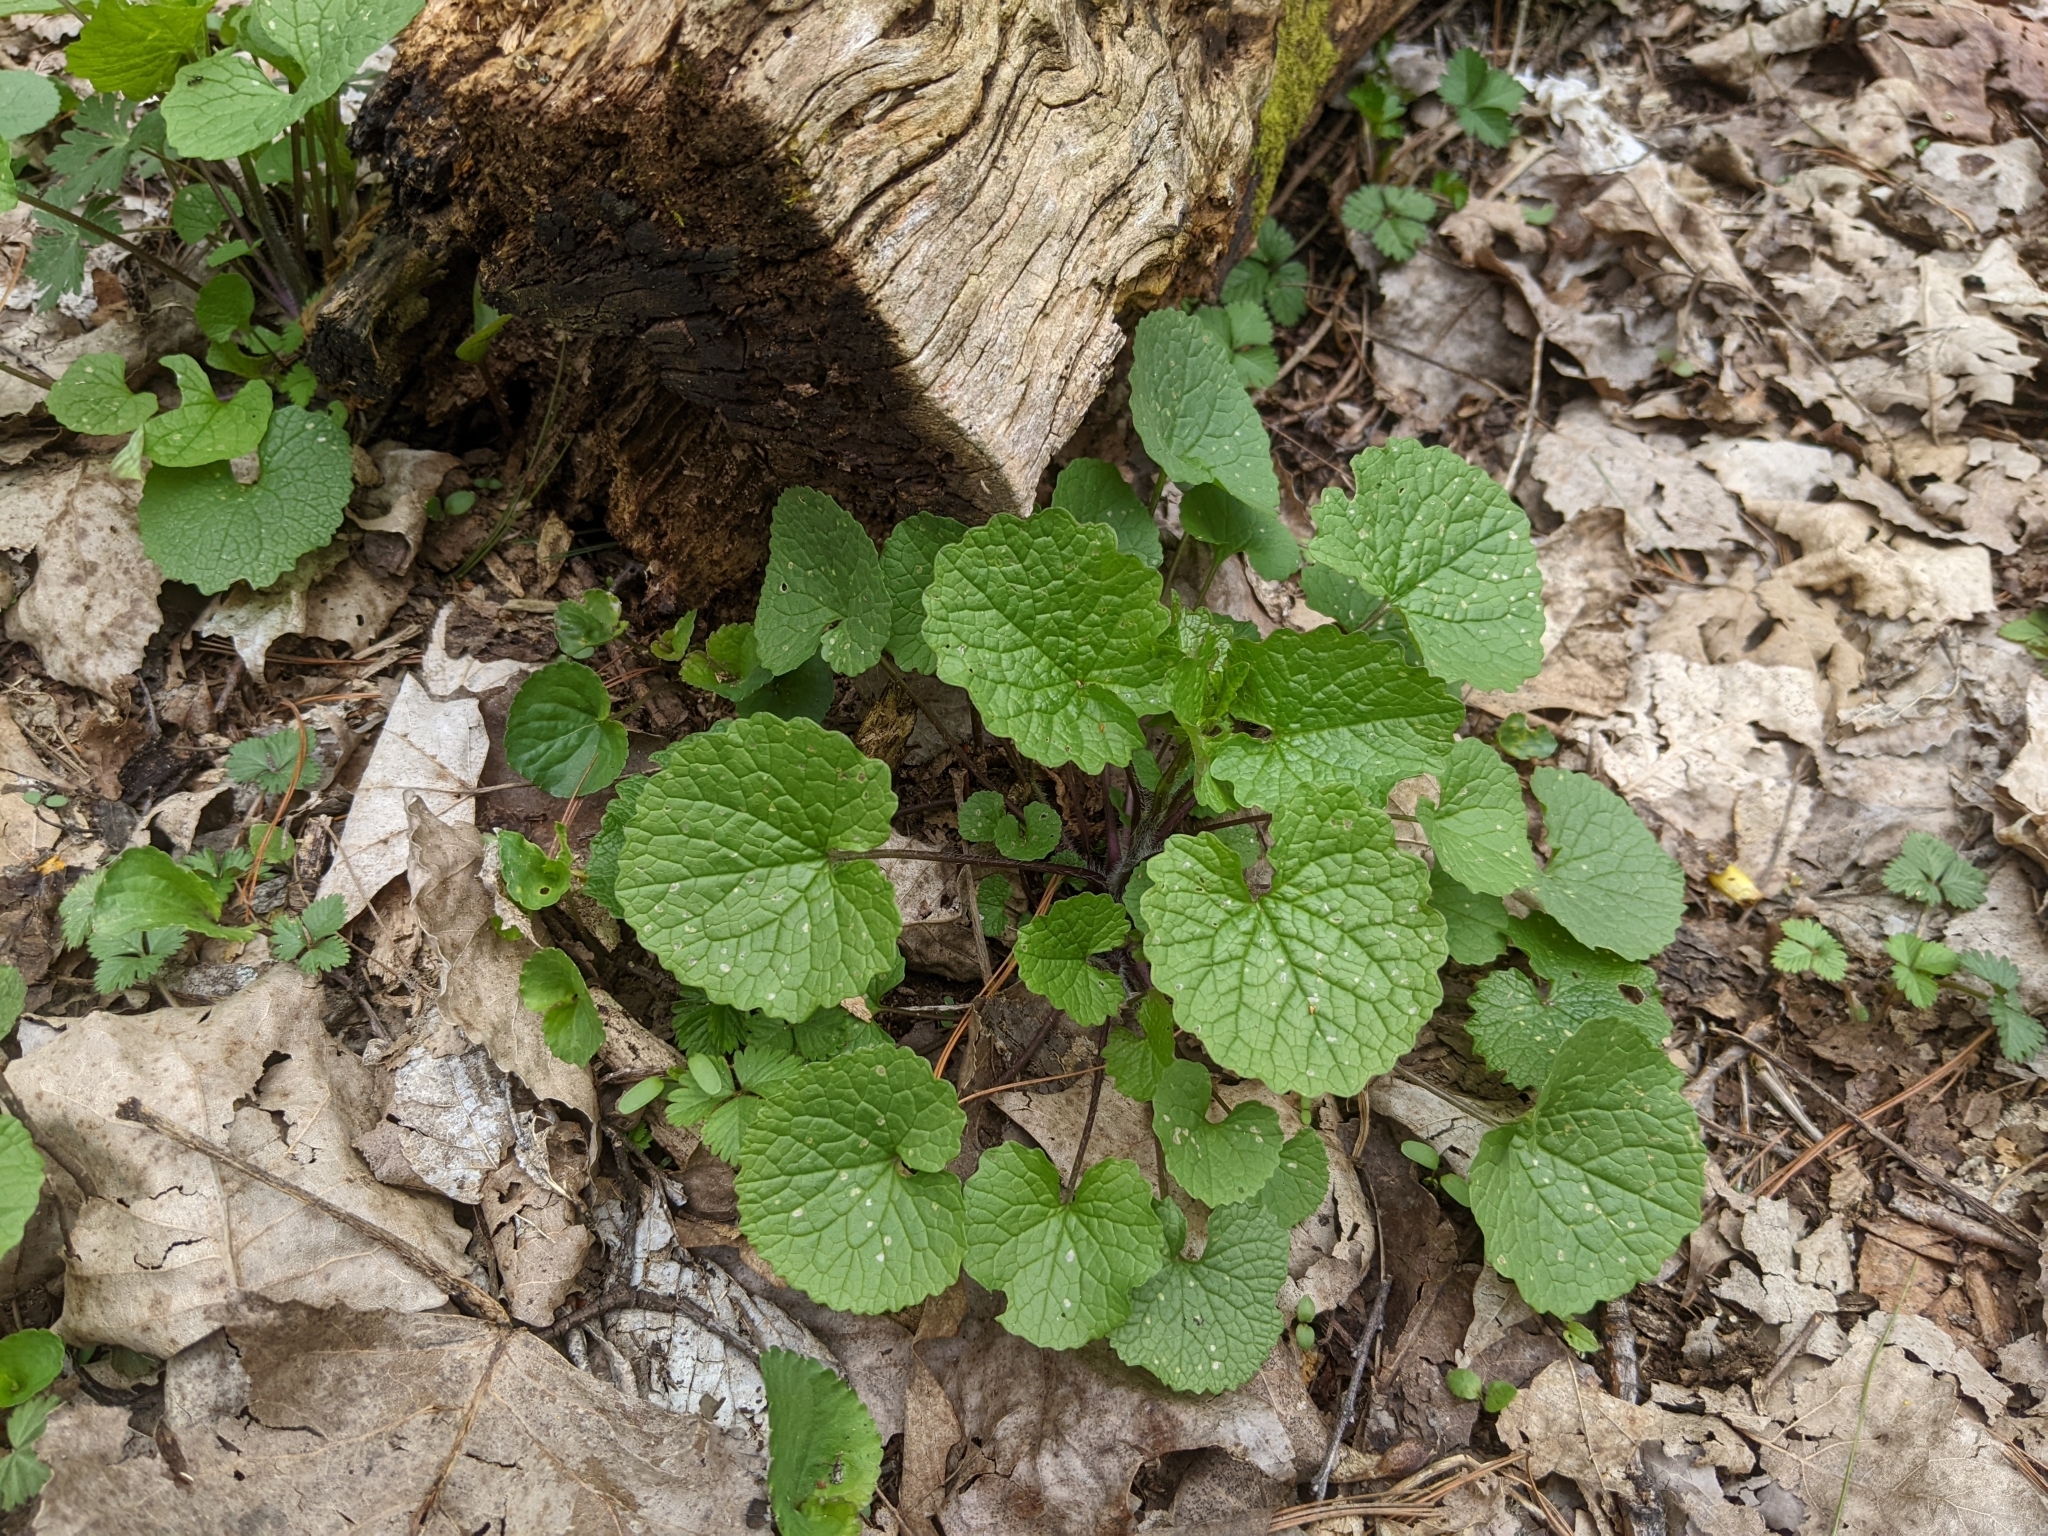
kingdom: Plantae
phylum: Tracheophyta
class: Magnoliopsida
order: Brassicales
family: Brassicaceae
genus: Alliaria
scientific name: Alliaria petiolata
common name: Garlic mustard
